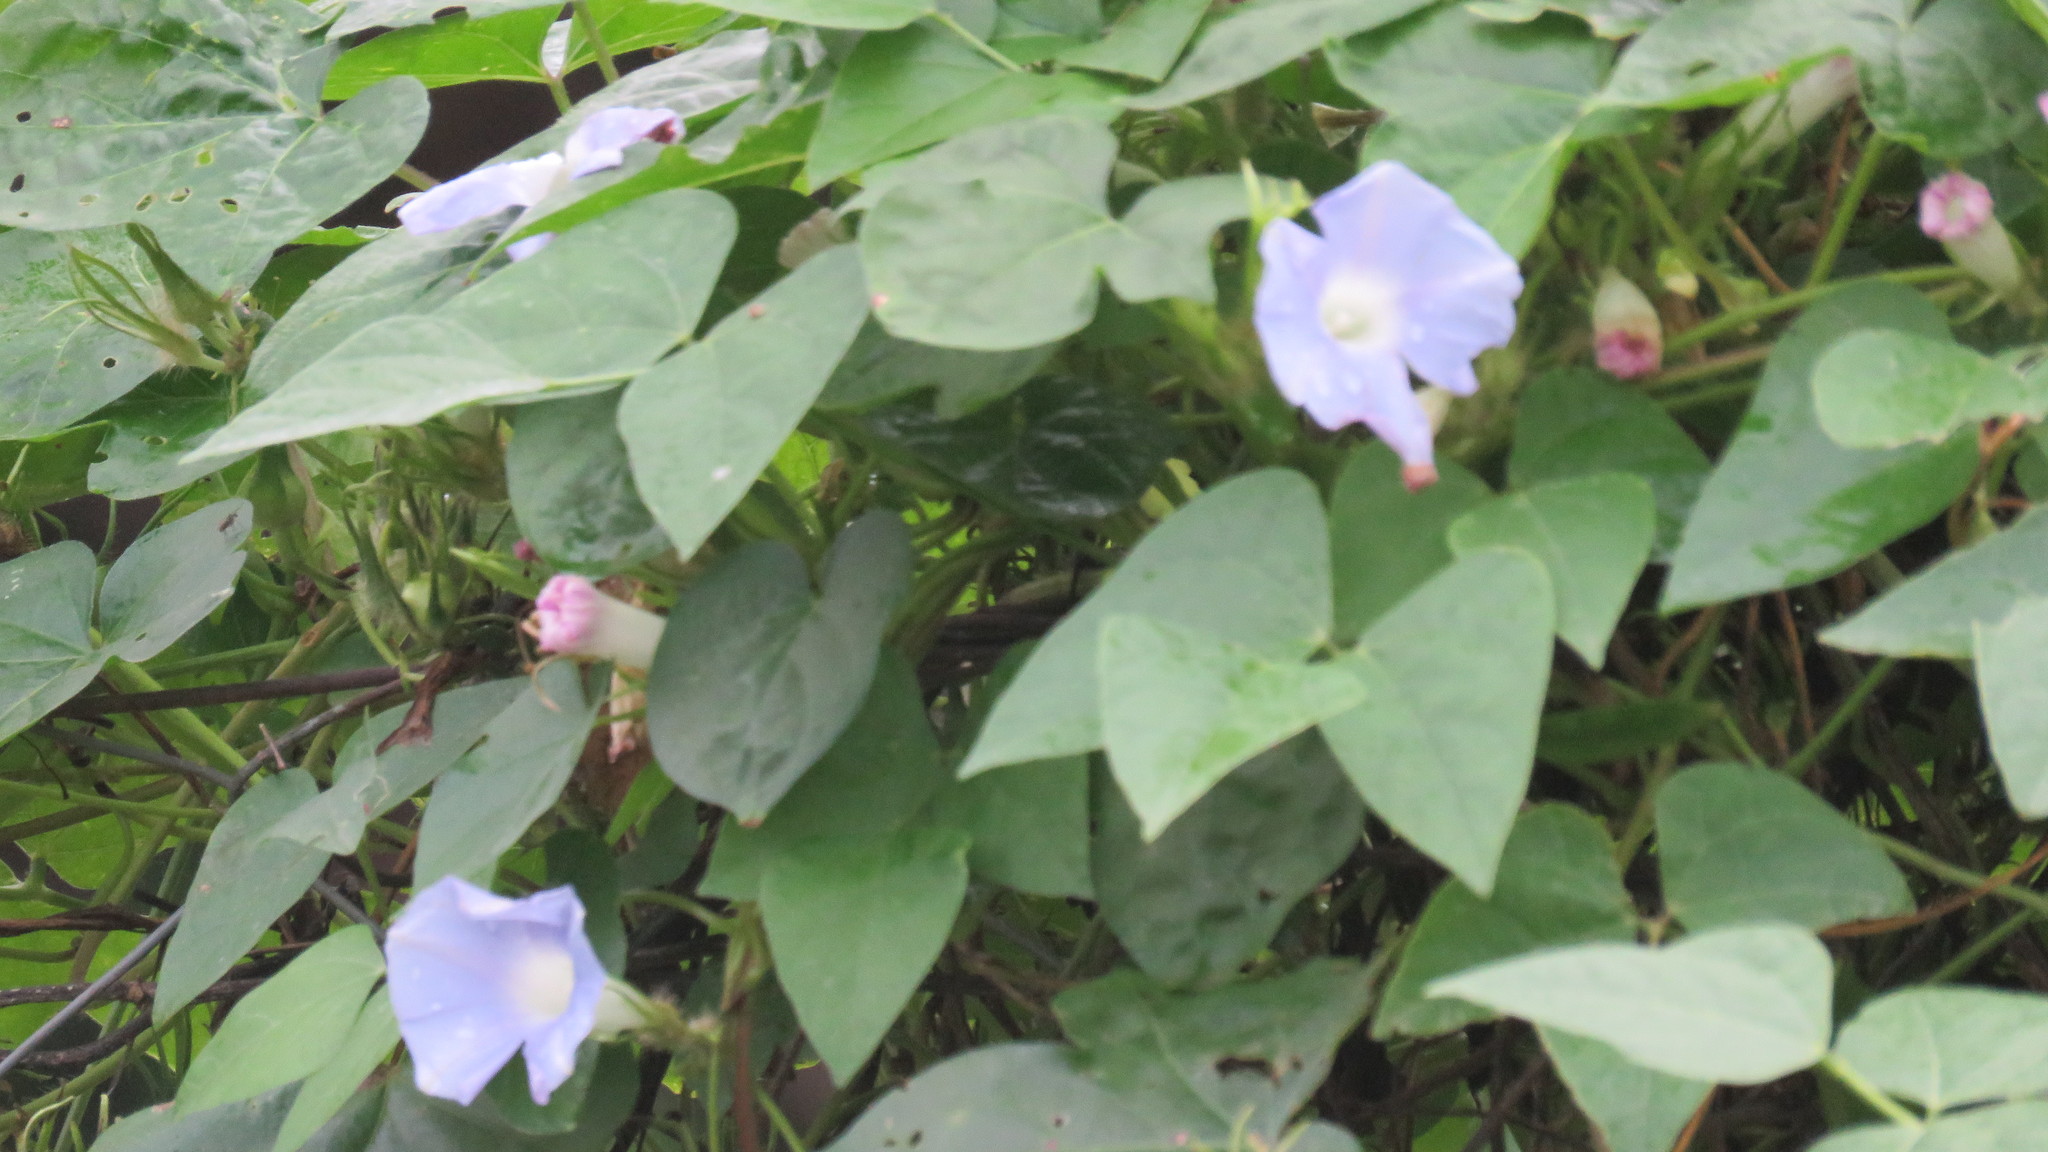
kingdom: Plantae
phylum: Tracheophyta
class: Magnoliopsida
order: Solanales
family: Convolvulaceae
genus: Ipomoea
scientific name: Ipomoea nil
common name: Japanese morning-glory
